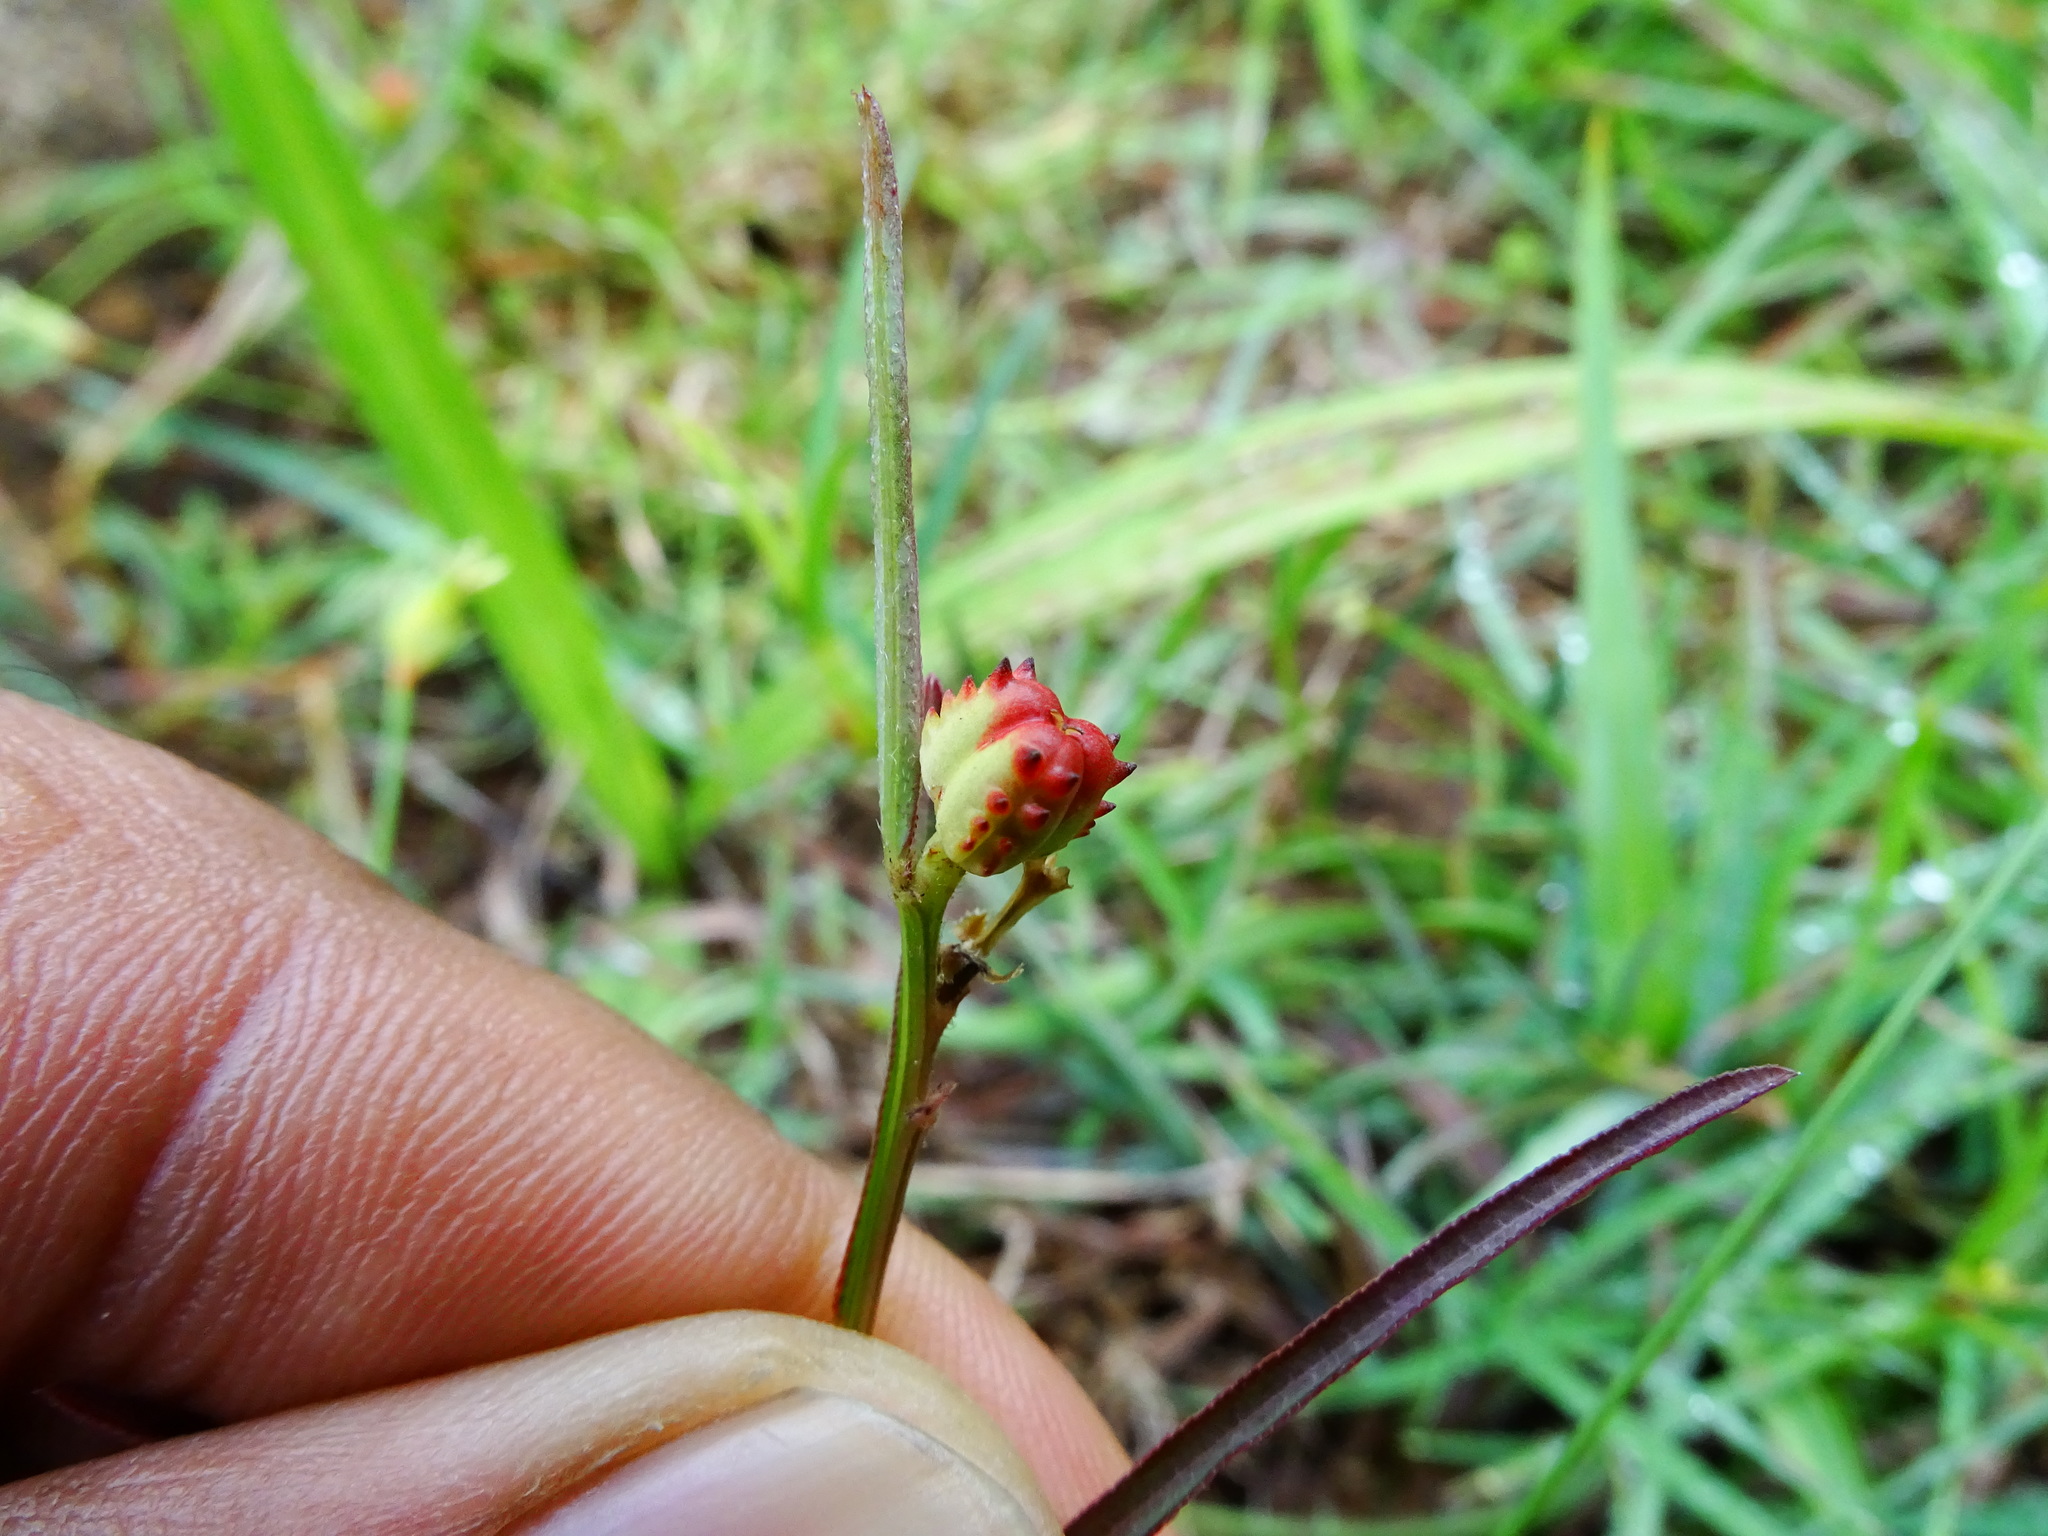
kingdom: Plantae
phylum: Tracheophyta
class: Magnoliopsida
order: Malpighiales
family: Euphorbiaceae
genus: Microstachys
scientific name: Microstachys chamaelea
